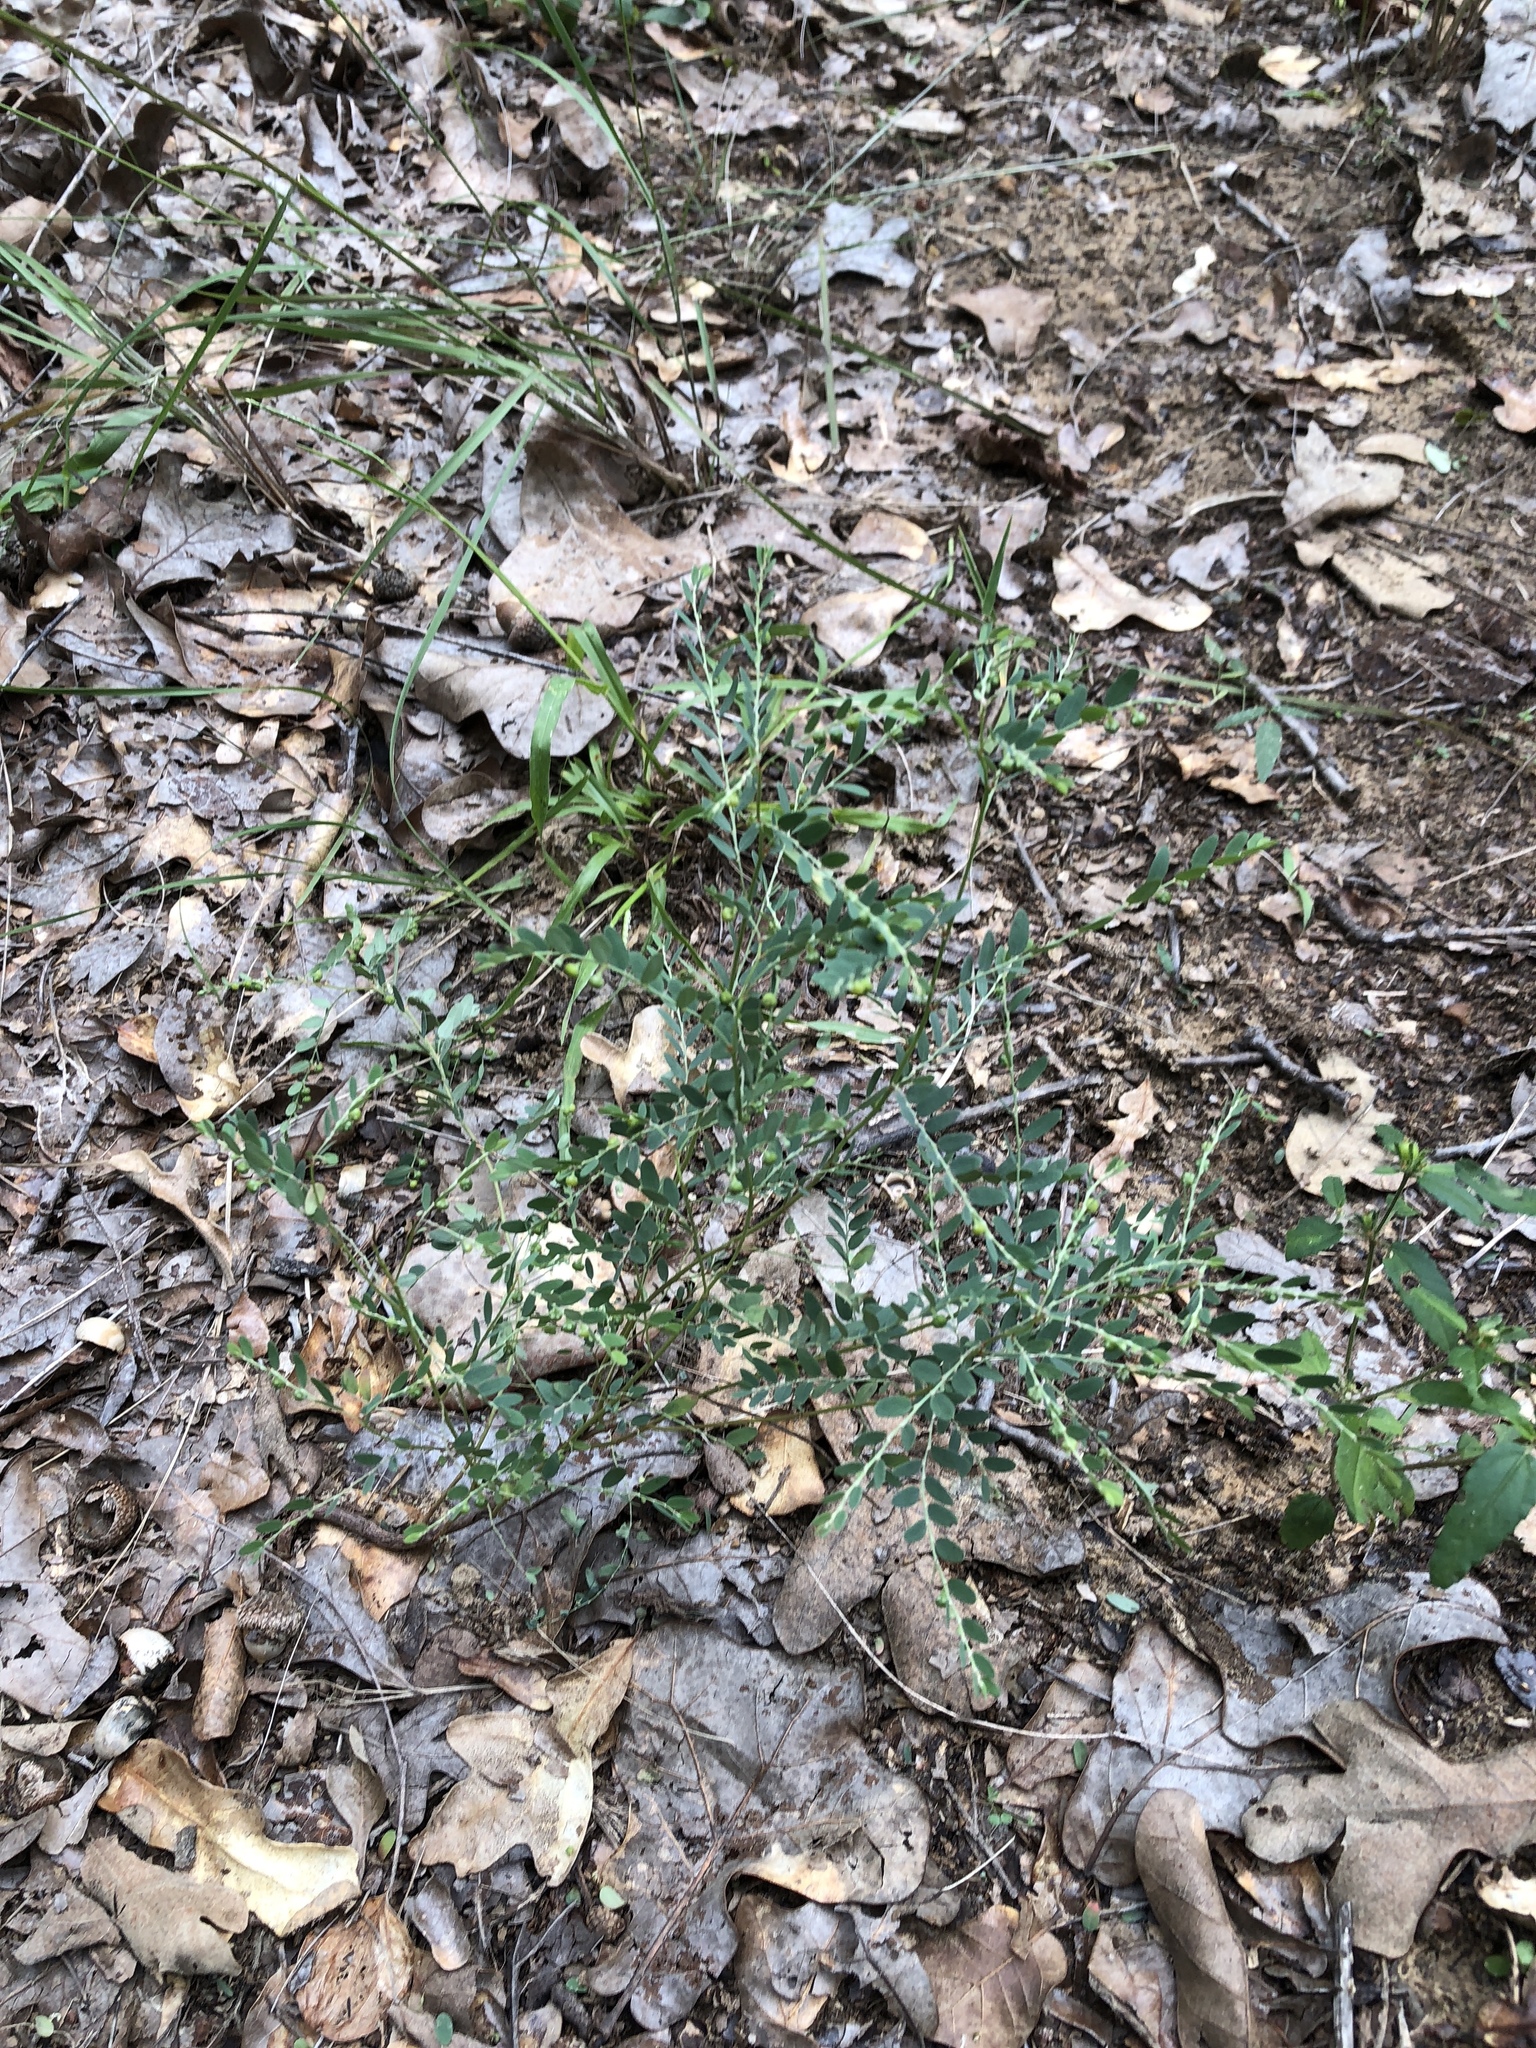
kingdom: Plantae
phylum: Tracheophyta
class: Magnoliopsida
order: Malpighiales
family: Phyllanthaceae
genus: Phyllanthus
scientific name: Phyllanthus urinaria
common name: Chamber bitter
